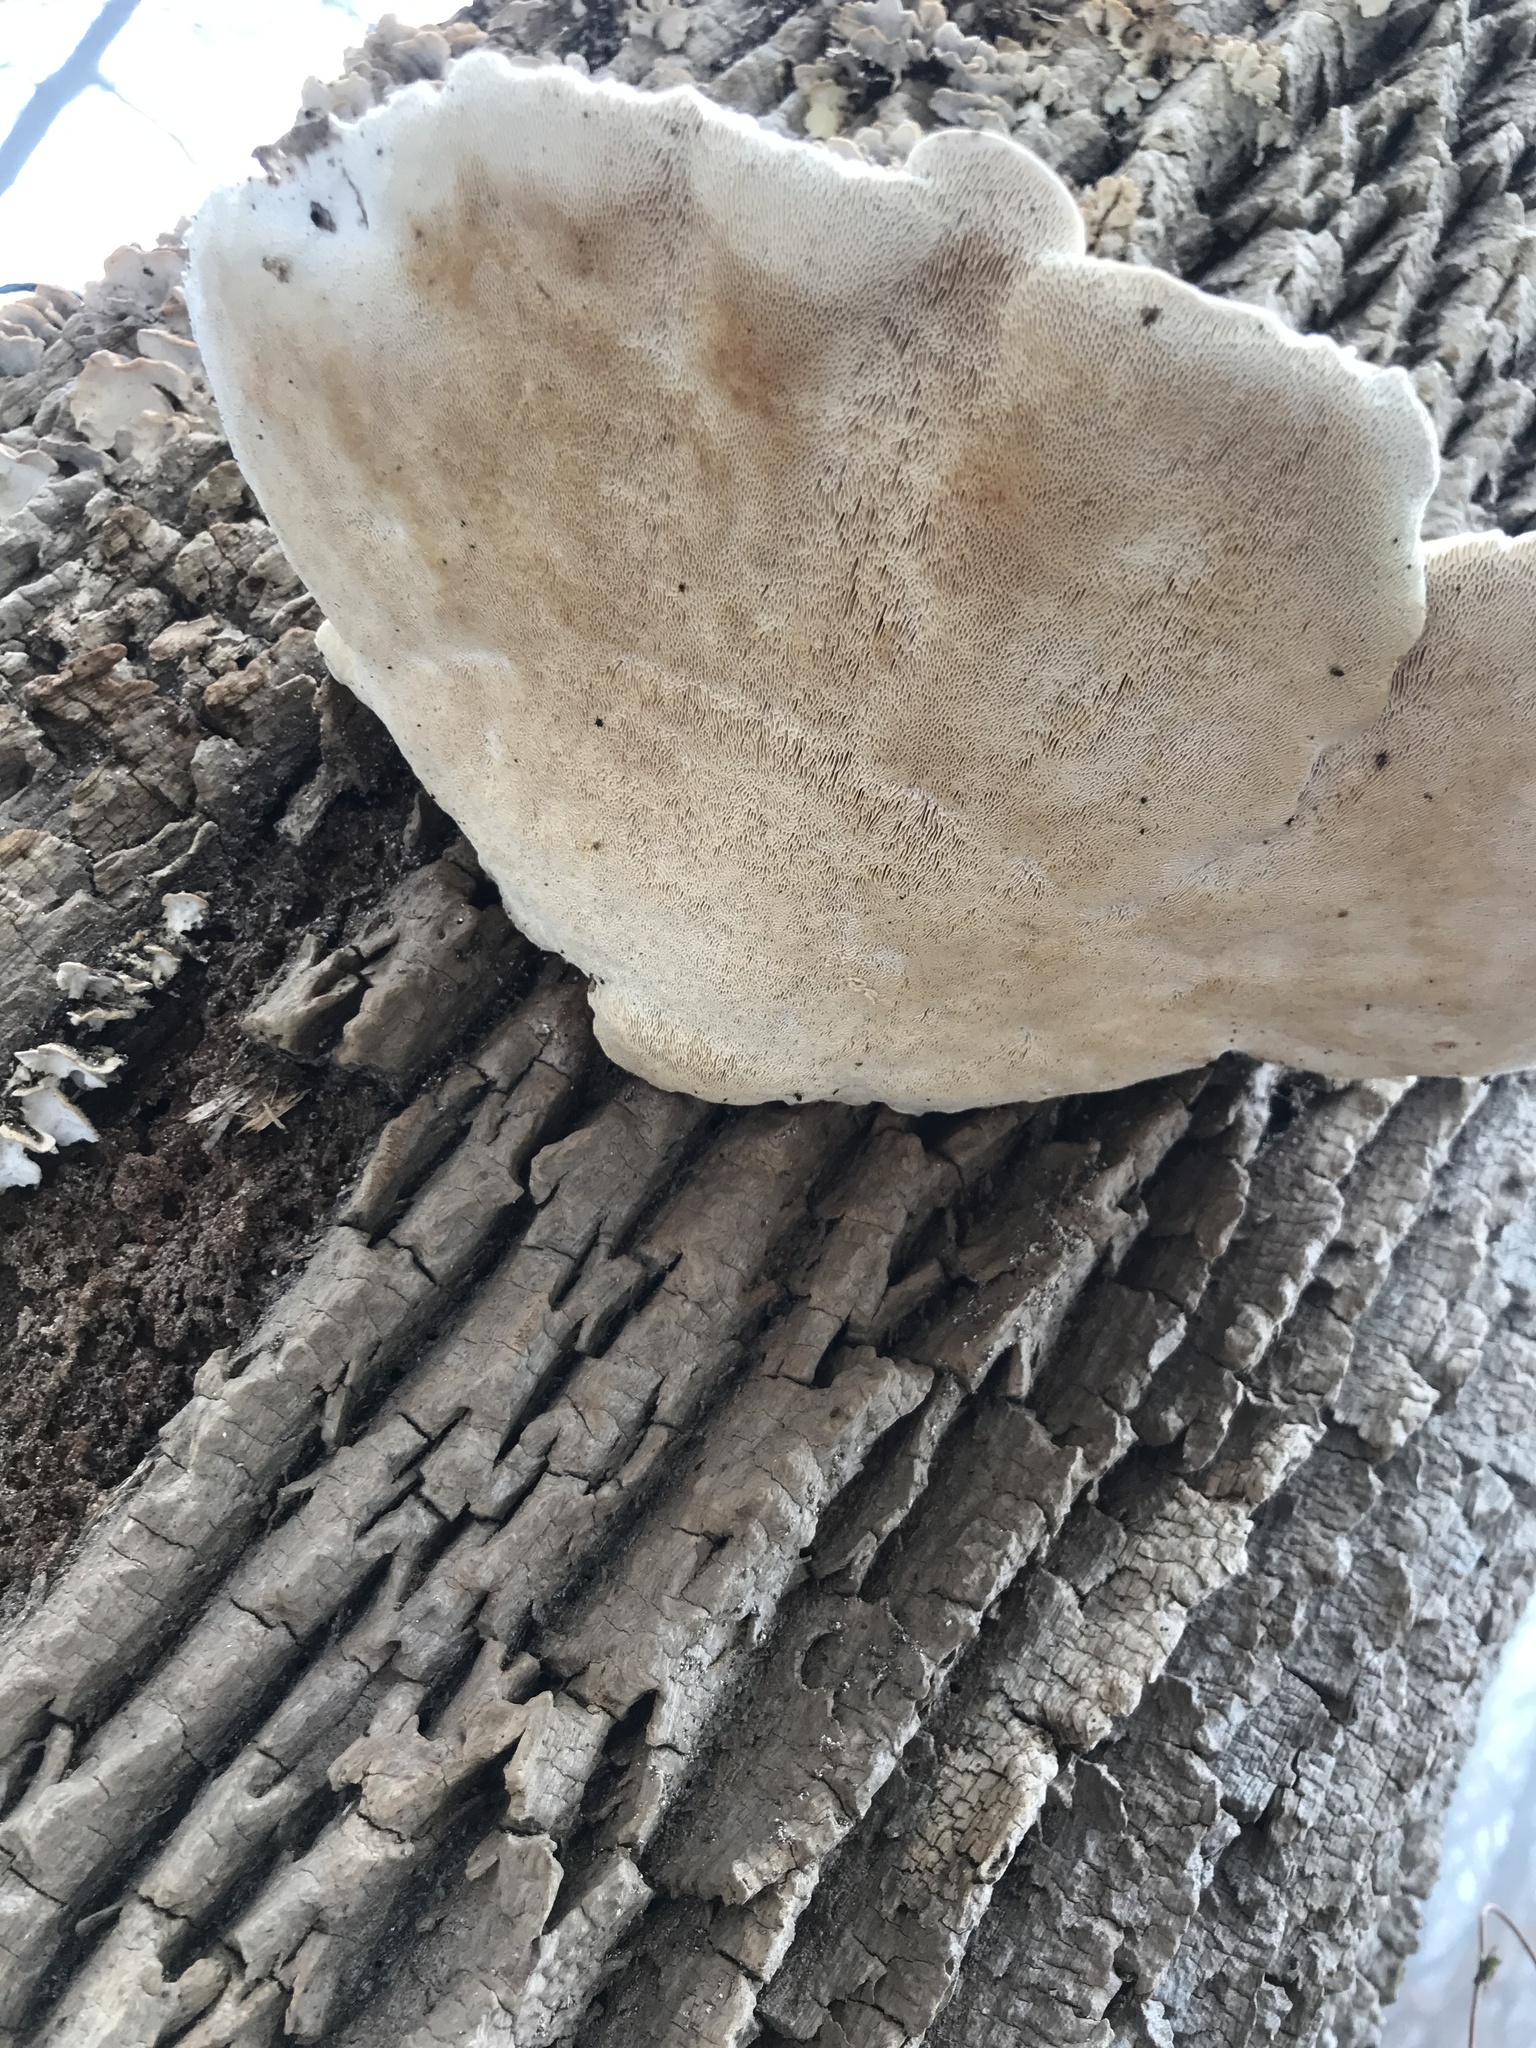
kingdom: Fungi
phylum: Basidiomycota
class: Agaricomycetes
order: Polyporales
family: Polyporaceae
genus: Trametes
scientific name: Trametes gibbosa
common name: Lumpy bracket
